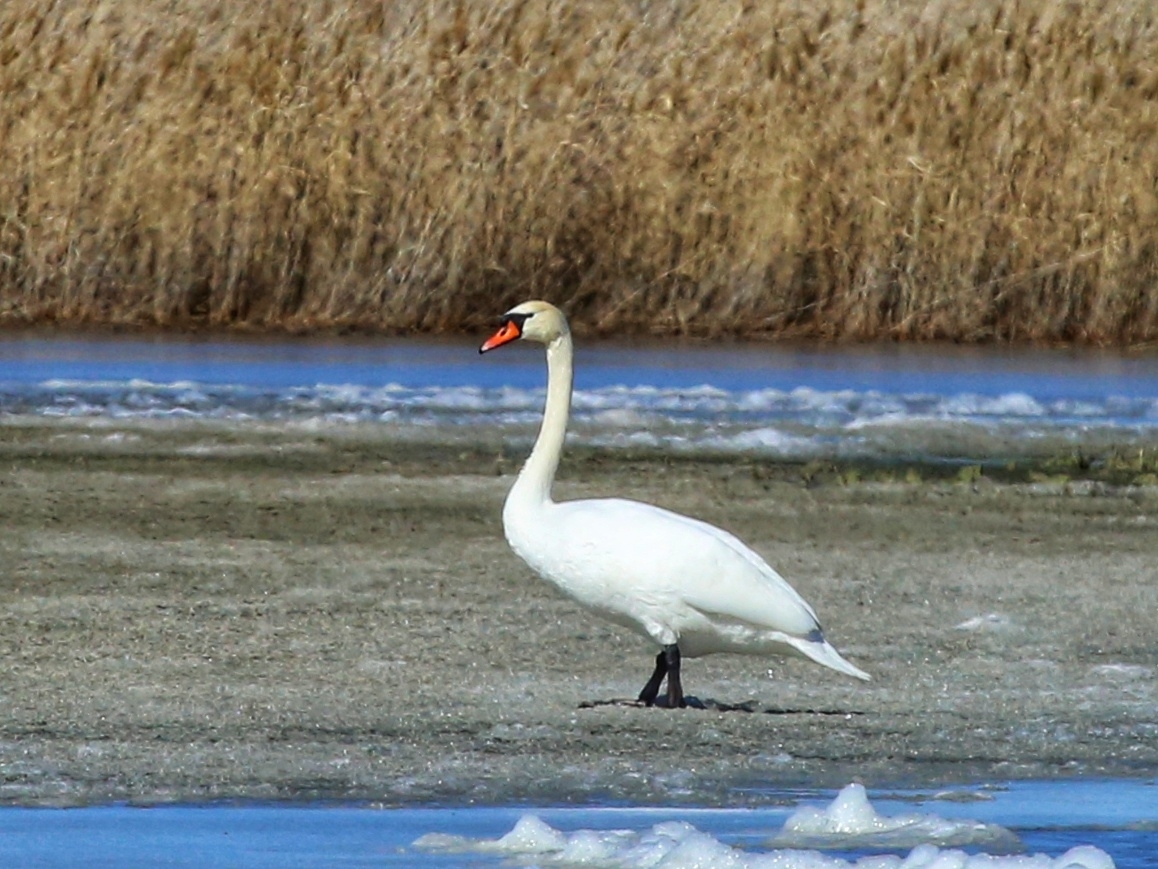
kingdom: Animalia
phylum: Chordata
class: Aves
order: Anseriformes
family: Anatidae
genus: Cygnus
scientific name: Cygnus olor
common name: Mute swan
